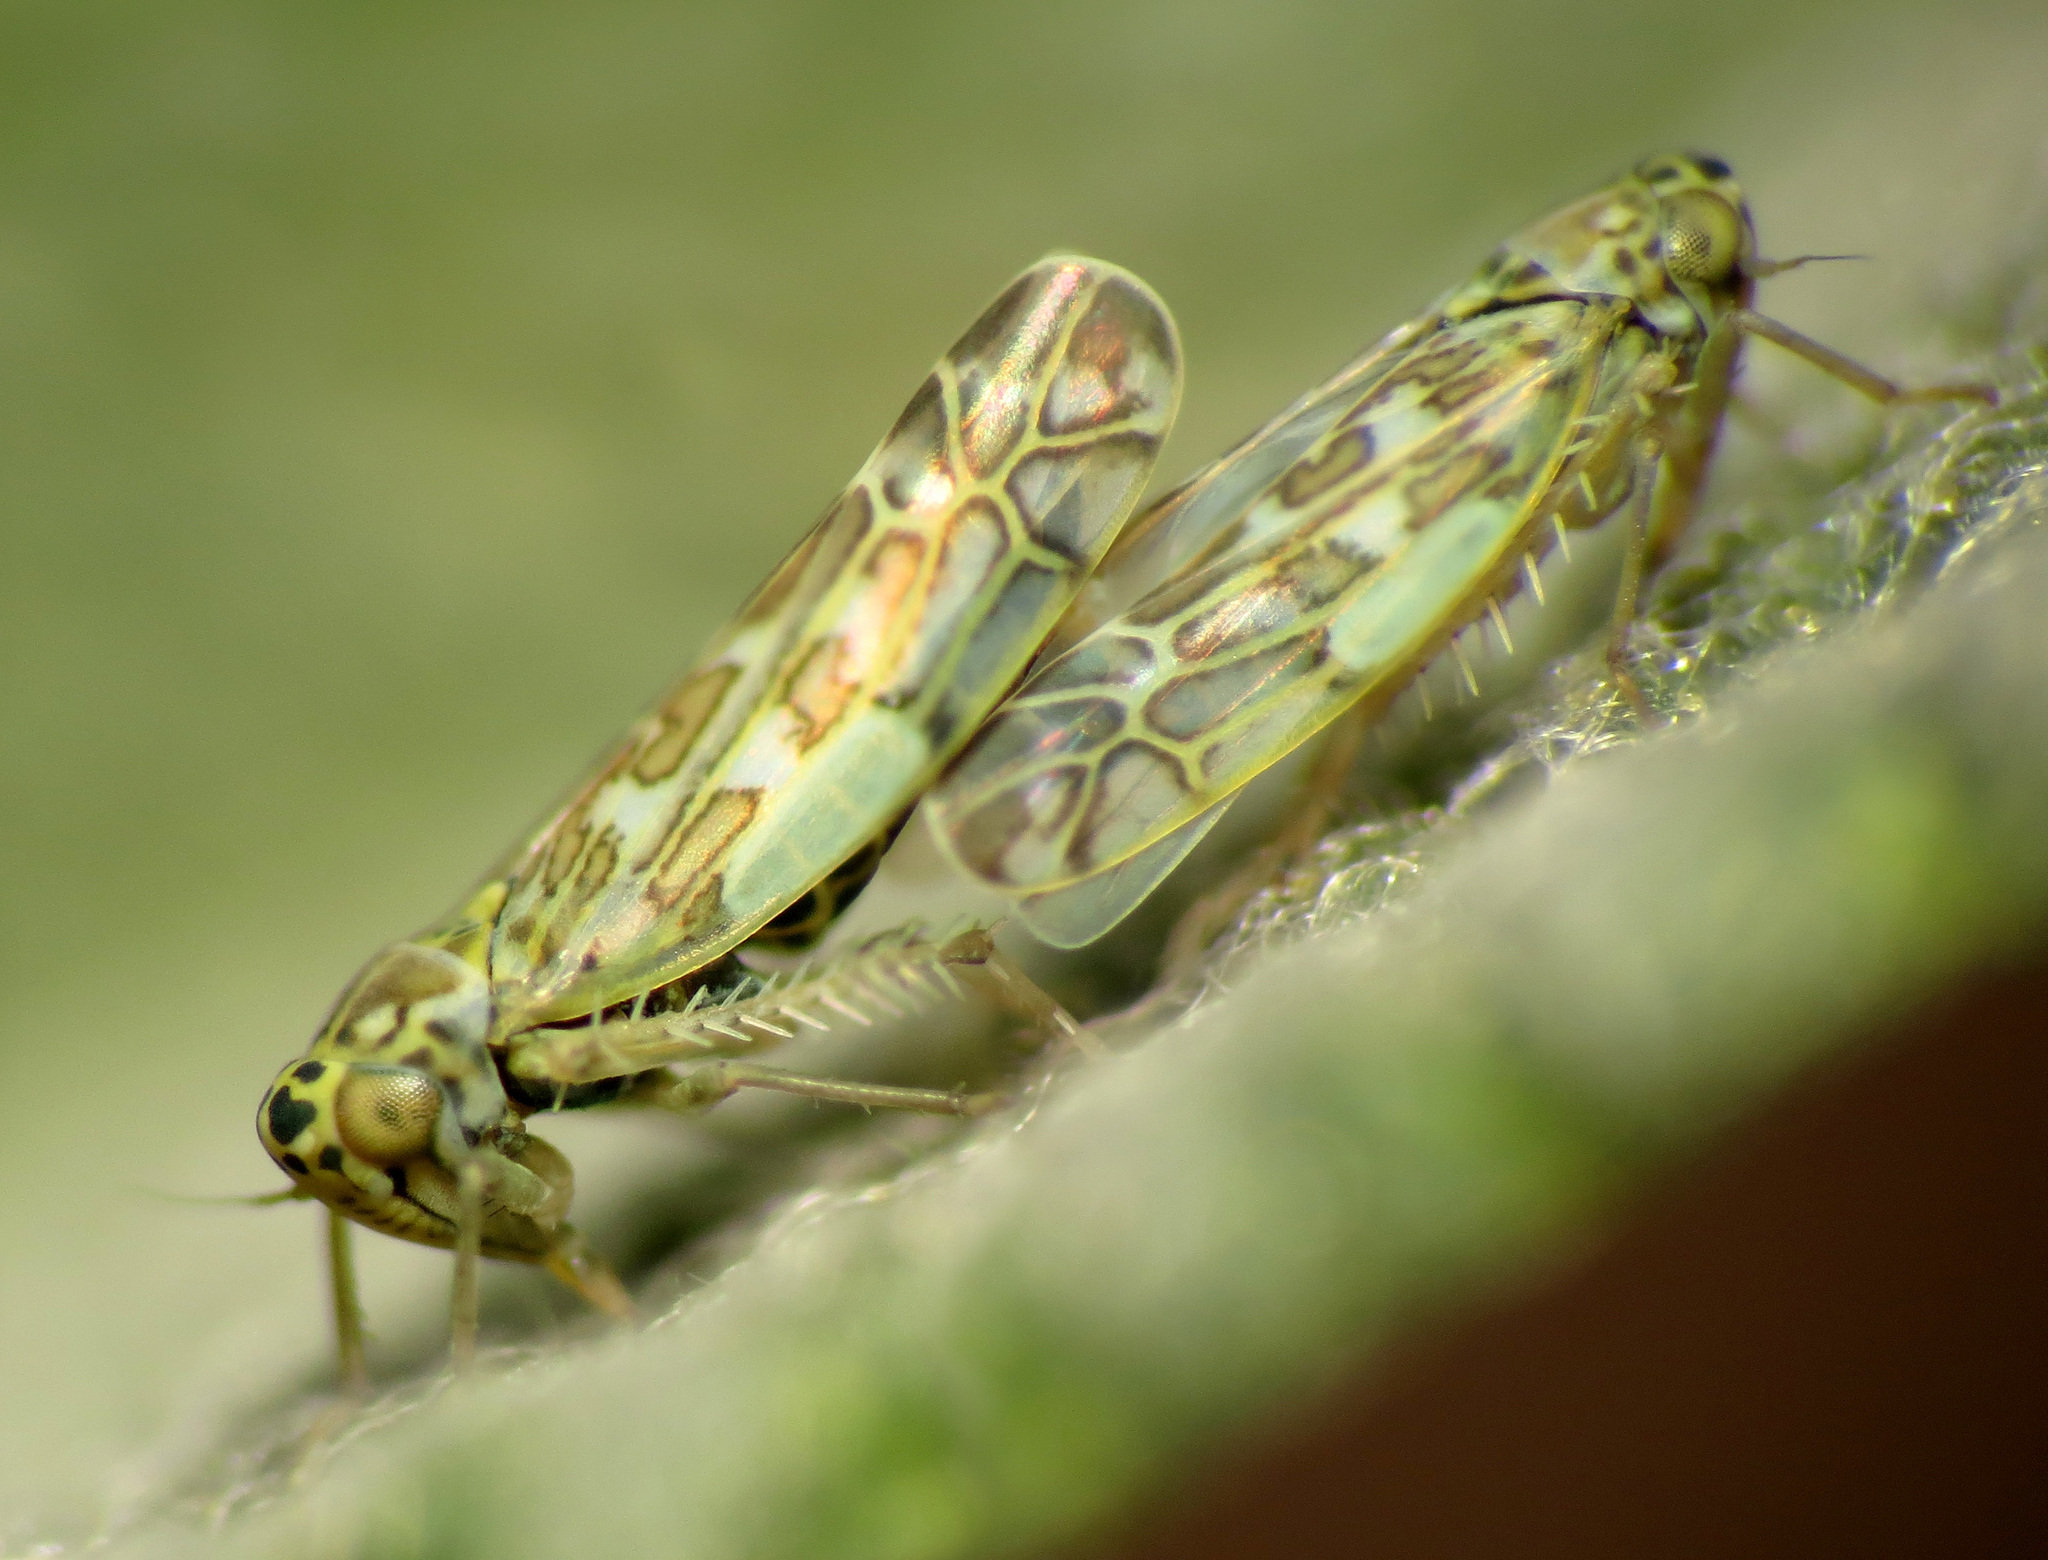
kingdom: Animalia
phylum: Arthropoda
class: Insecta
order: Hemiptera
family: Cicadellidae
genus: Eupteryx
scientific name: Eupteryx decemnotata
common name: Ligurian leafhopper
